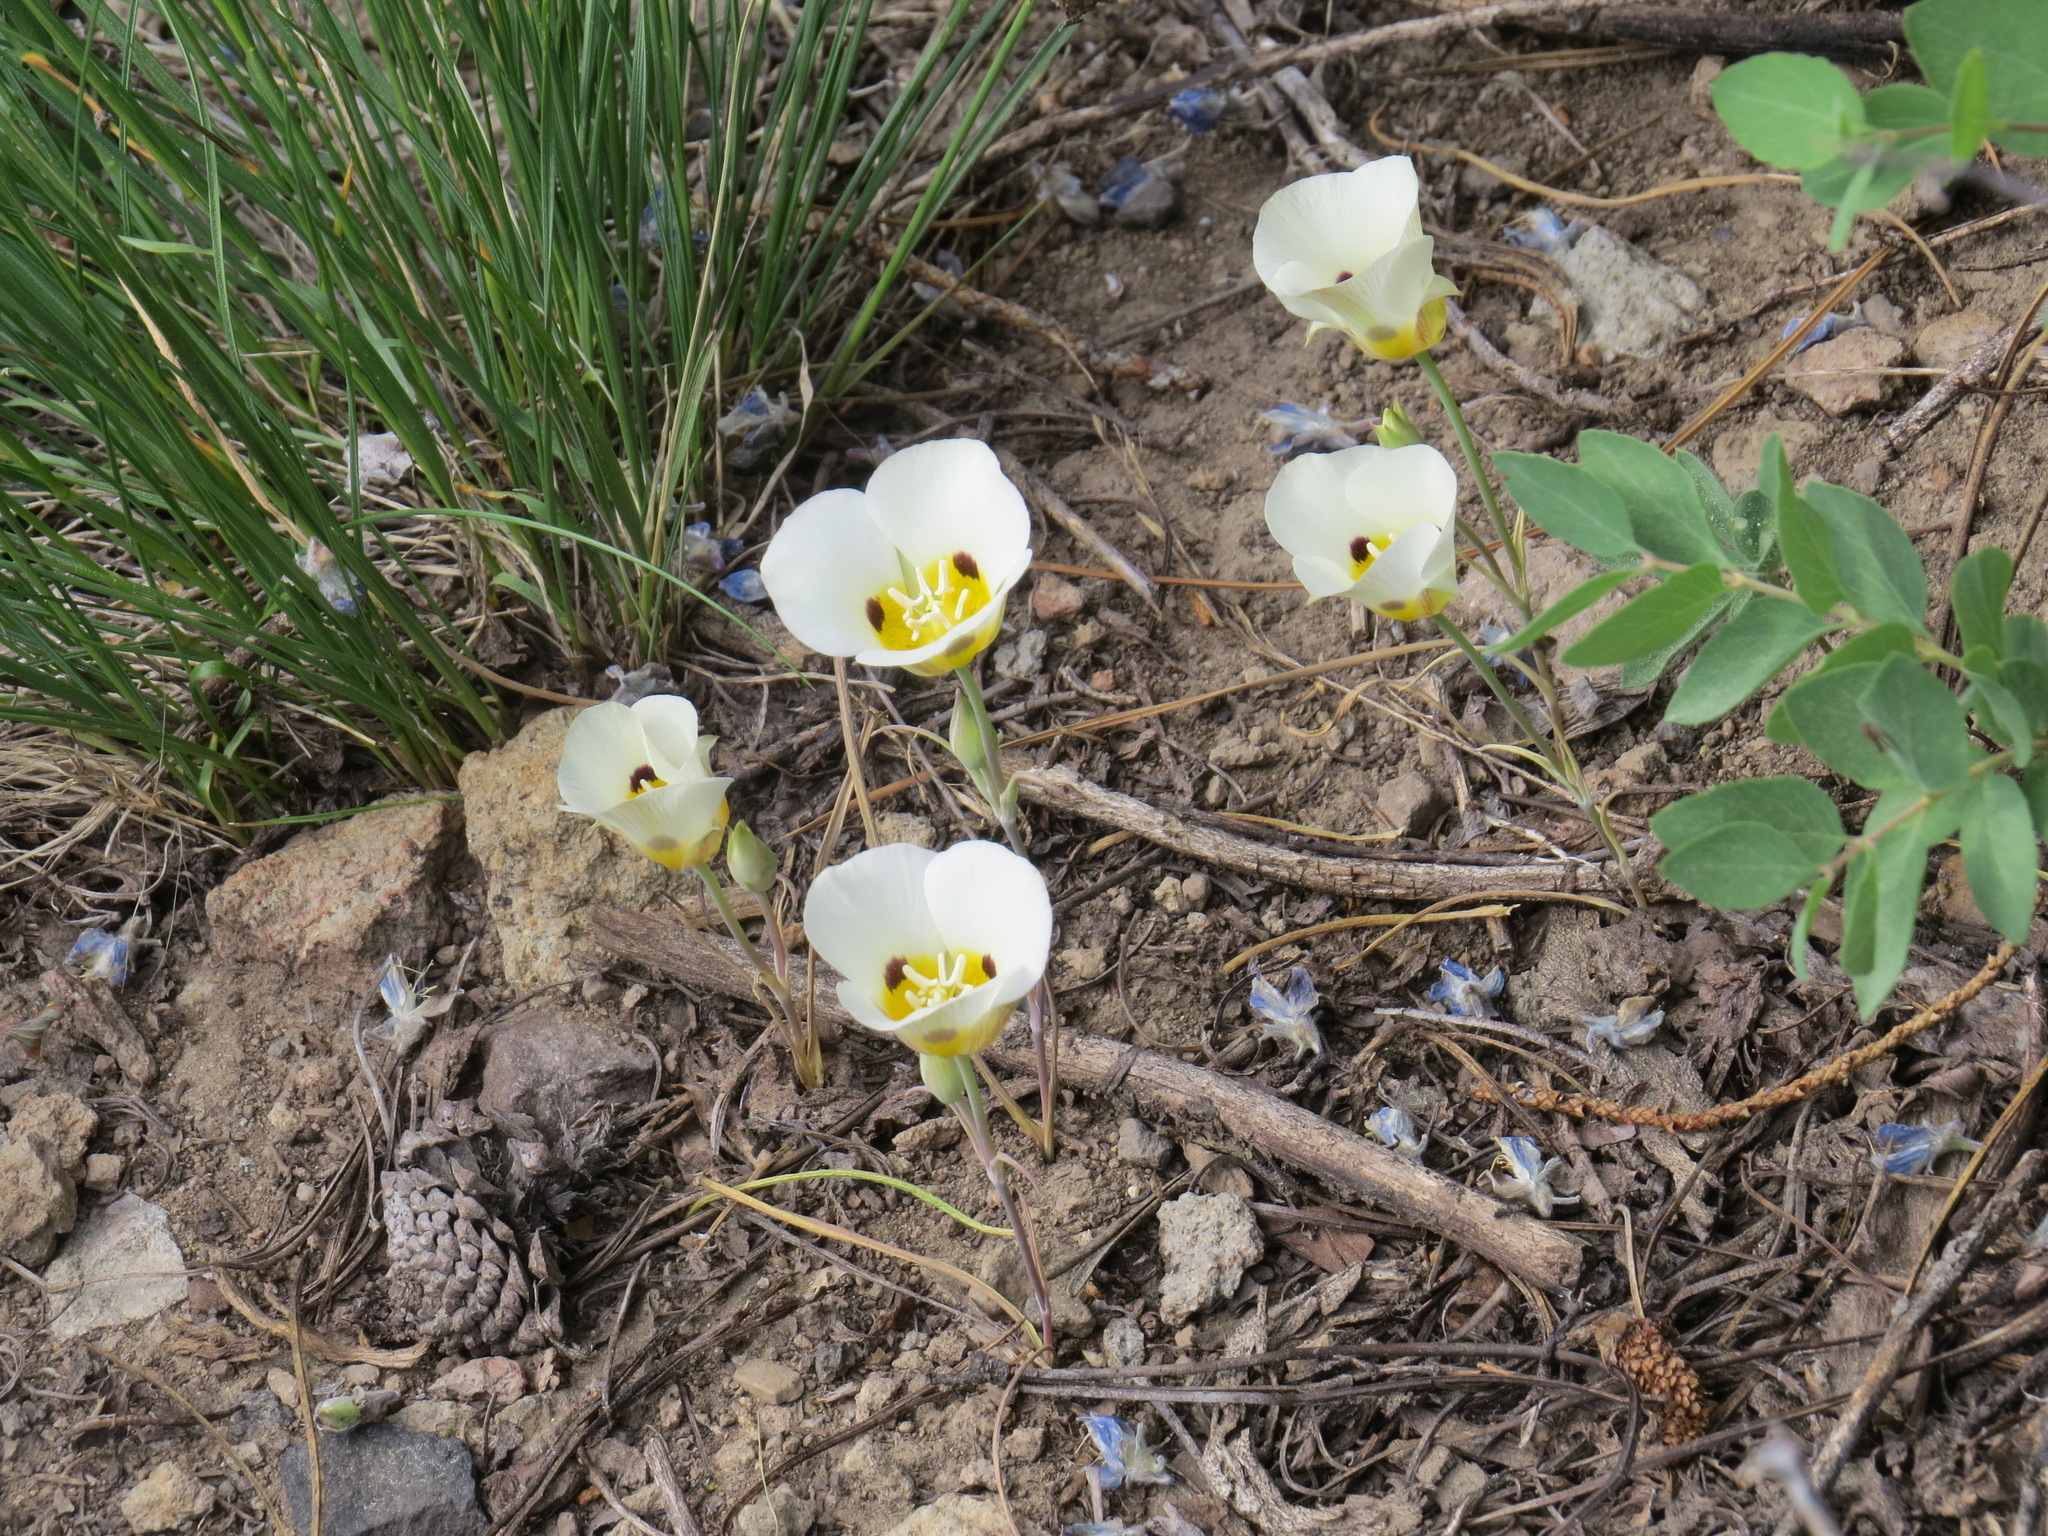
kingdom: Plantae
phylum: Tracheophyta
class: Liliopsida
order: Liliales
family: Liliaceae
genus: Calochortus
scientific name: Calochortus leichtlinii
